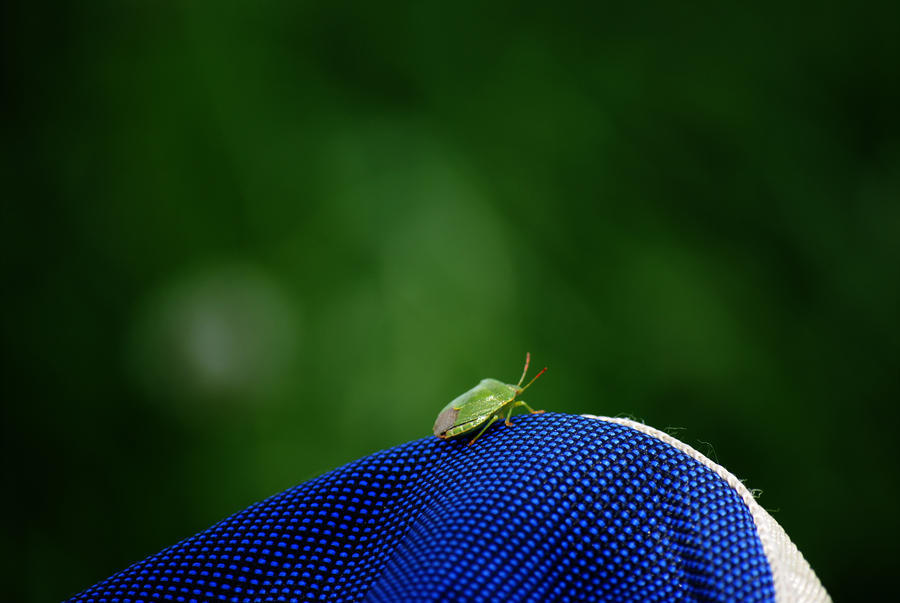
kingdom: Animalia
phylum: Arthropoda
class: Insecta
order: Hemiptera
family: Pentatomidae
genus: Palomena
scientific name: Palomena prasina
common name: Green shieldbug
